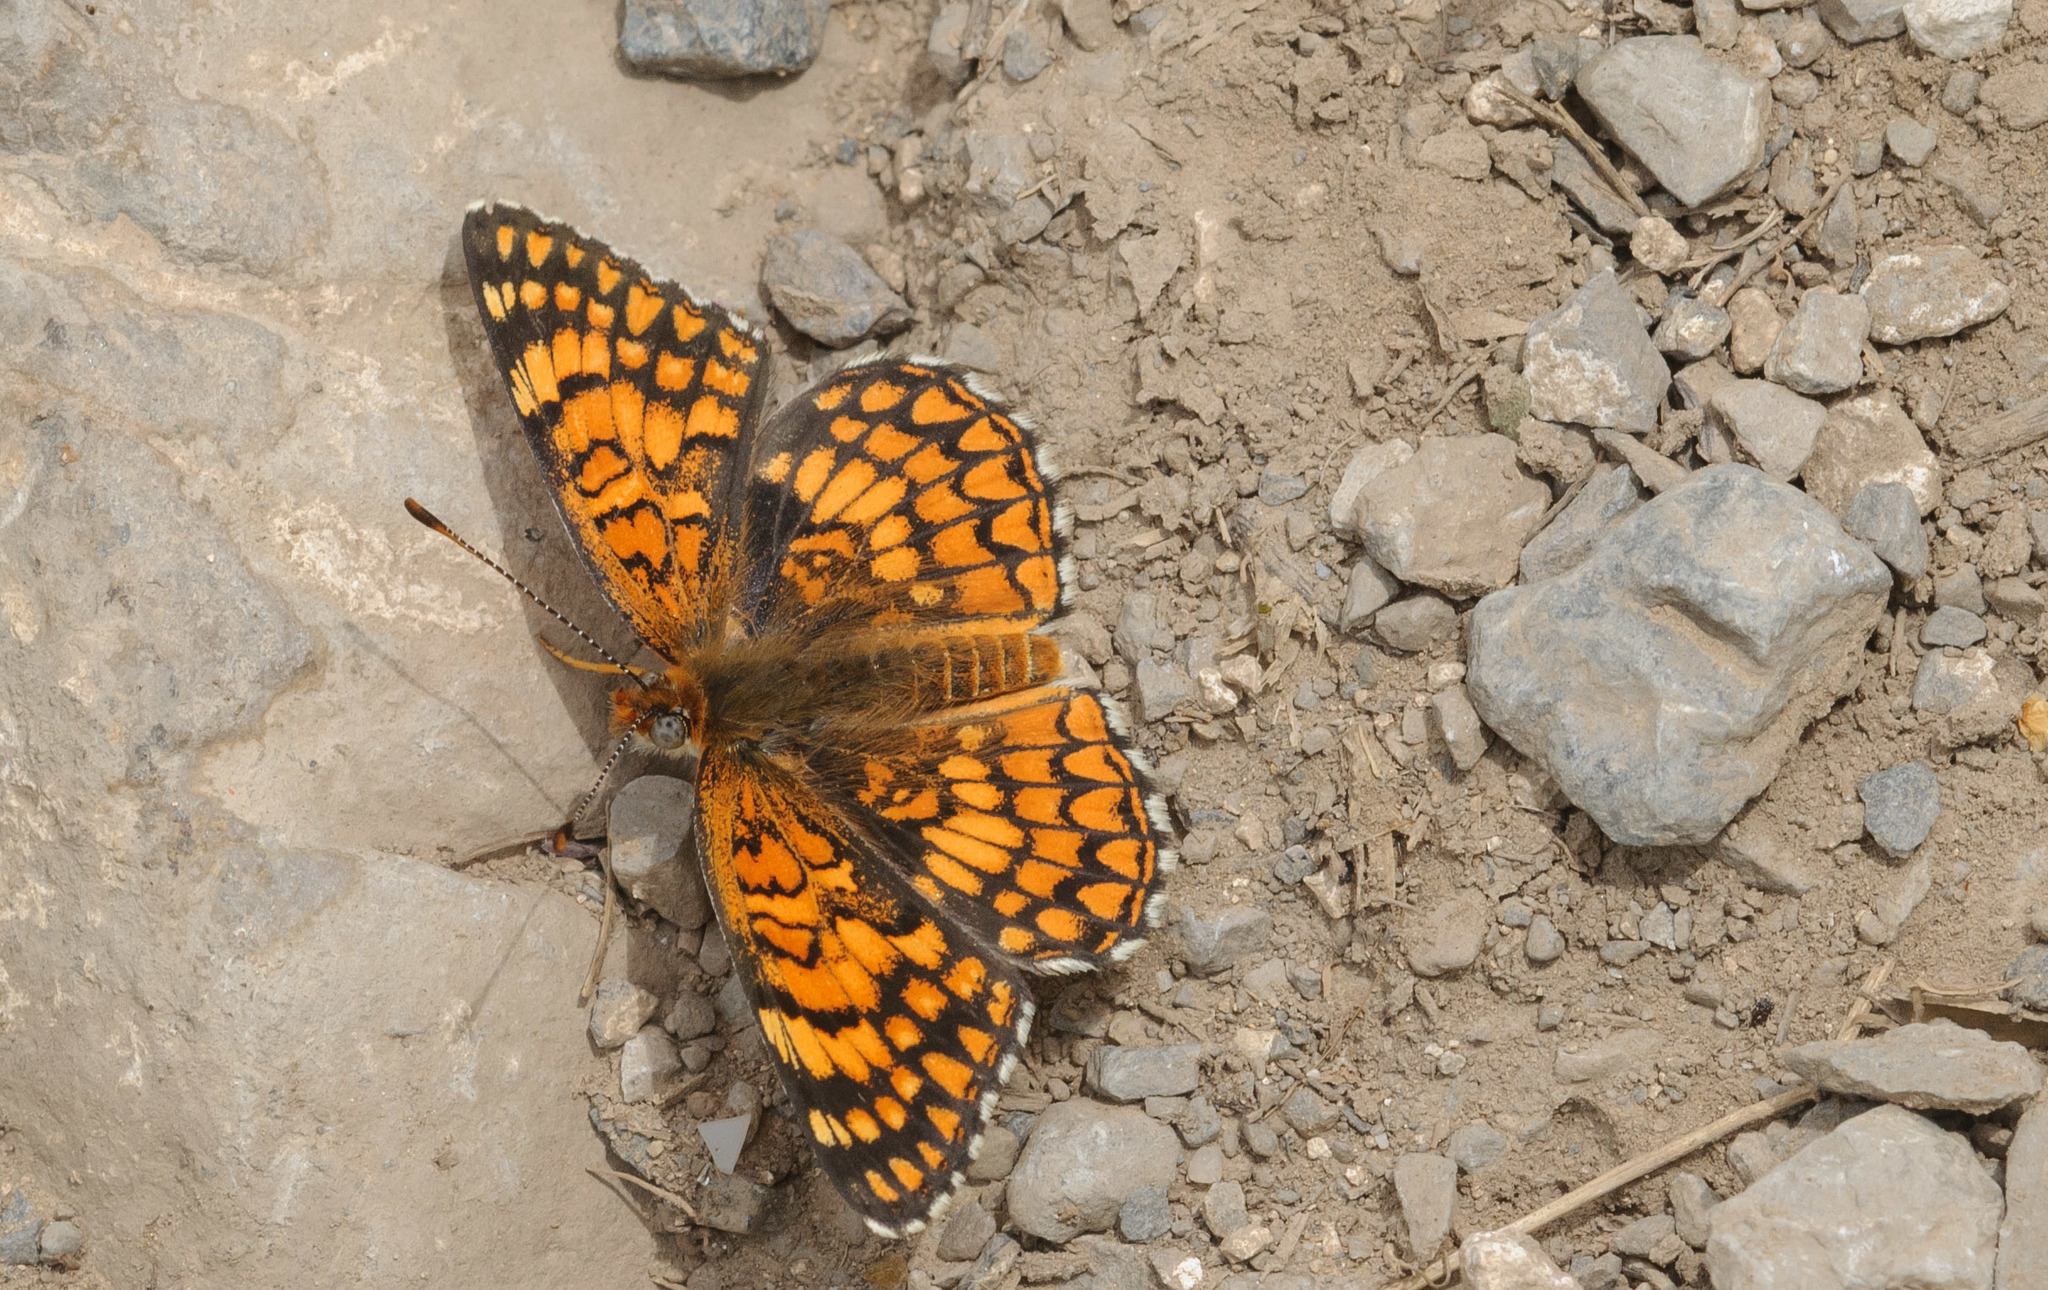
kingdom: Animalia
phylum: Arthropoda
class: Insecta
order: Lepidoptera
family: Nymphalidae
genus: Chlosyne
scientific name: Chlosyne acastus
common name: Sagebrush checkerspot
